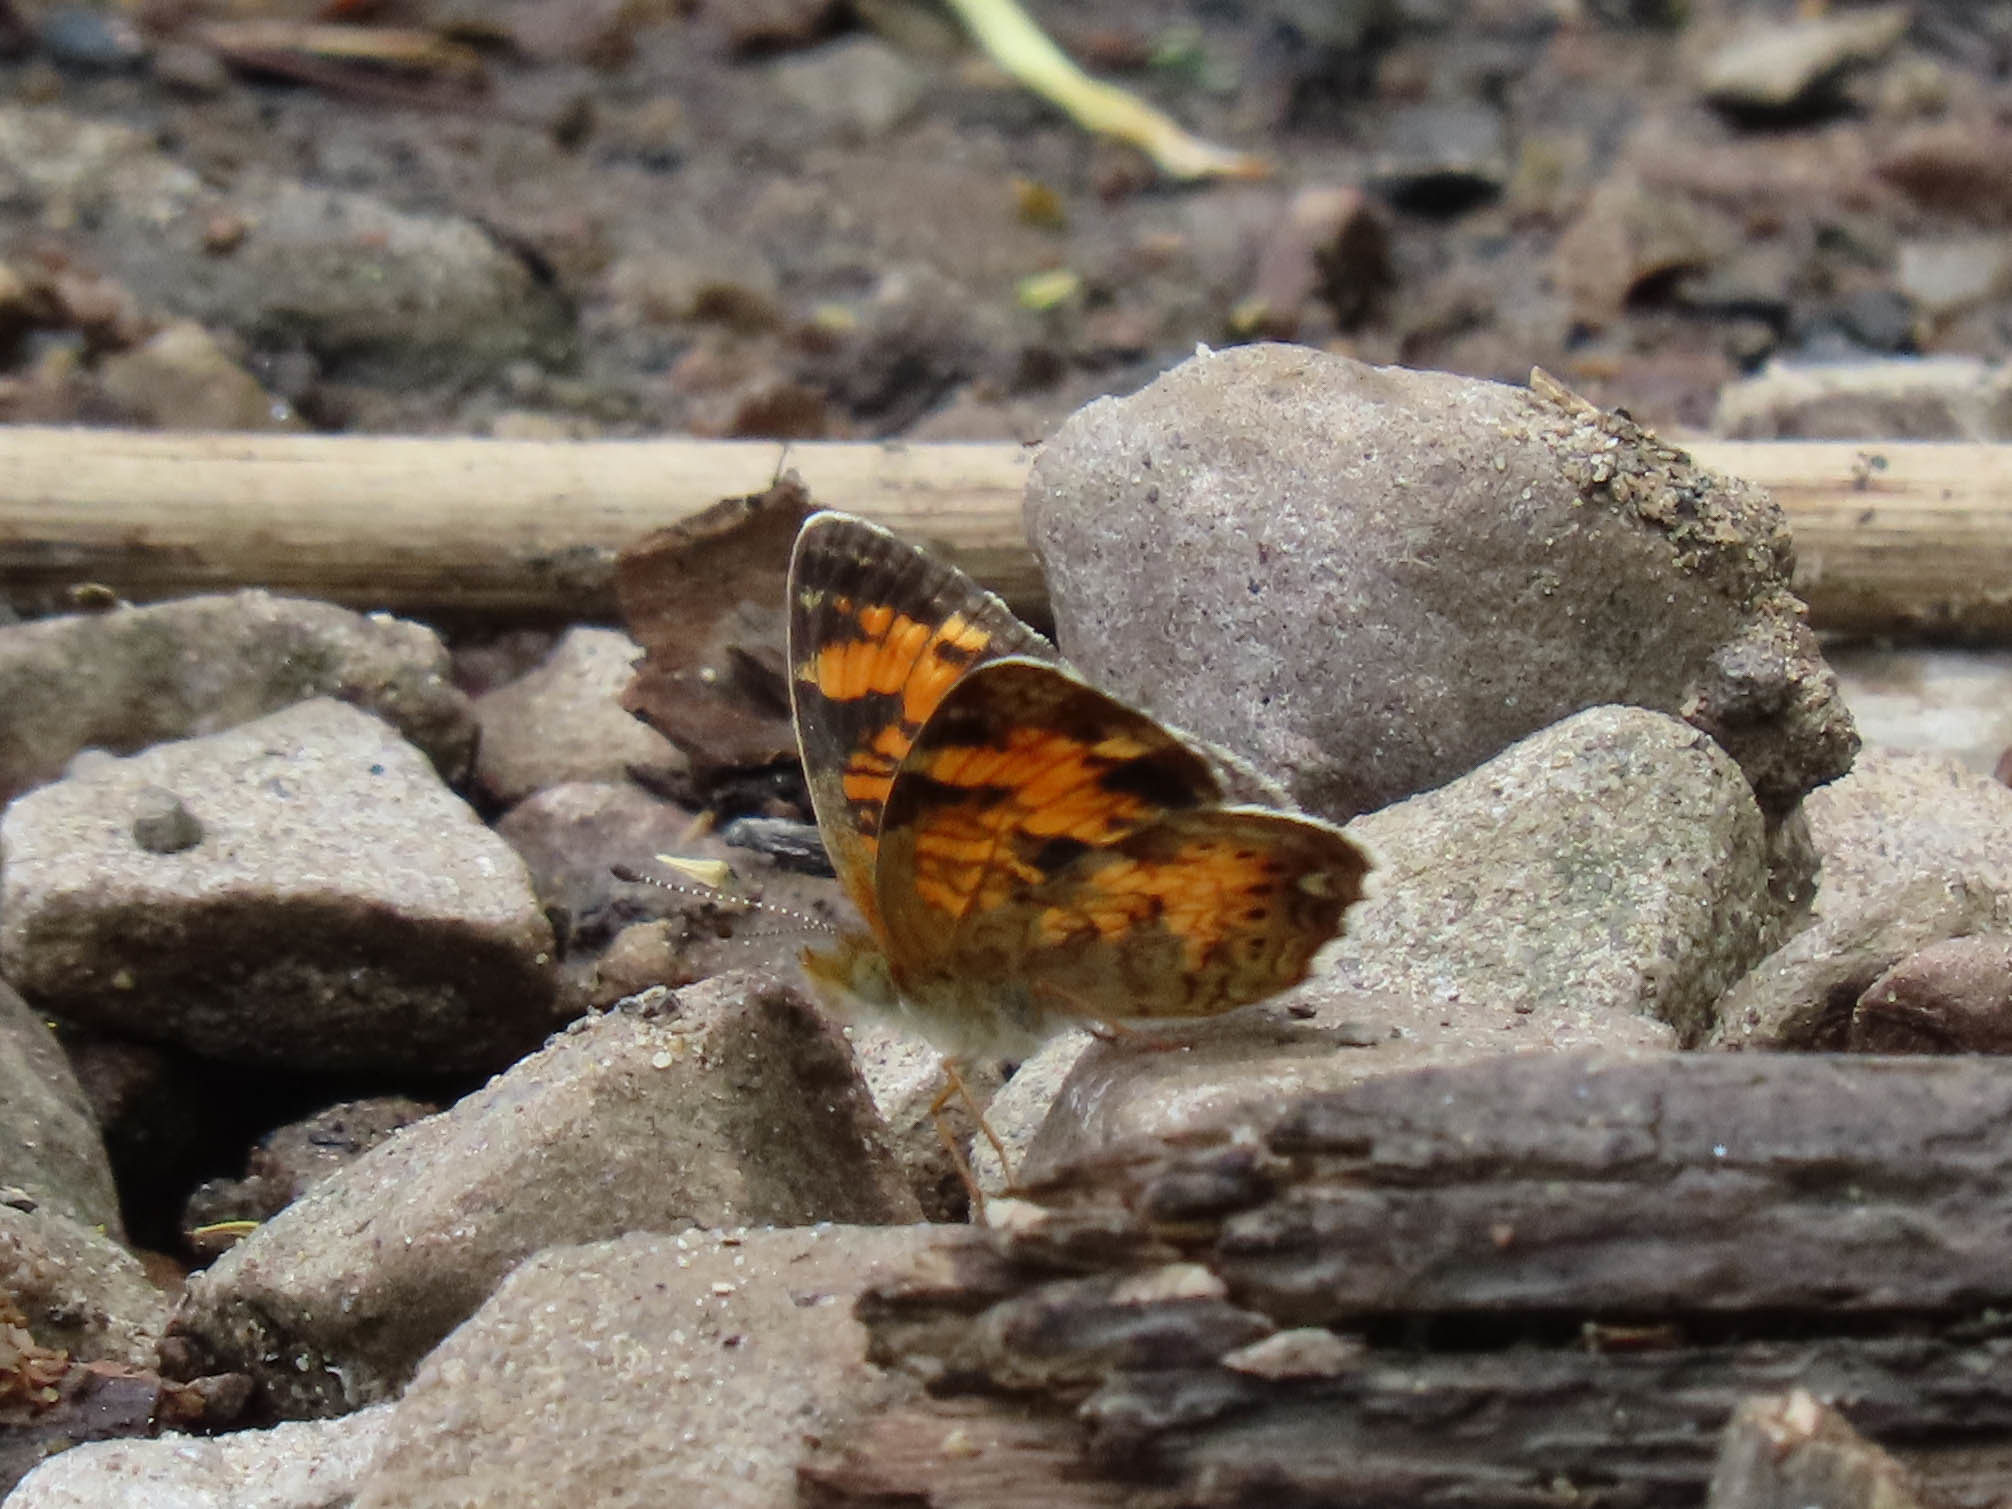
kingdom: Animalia
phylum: Arthropoda
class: Insecta
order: Lepidoptera
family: Nymphalidae
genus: Phyciodes
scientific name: Phyciodes tharos
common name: Pearl crescent
